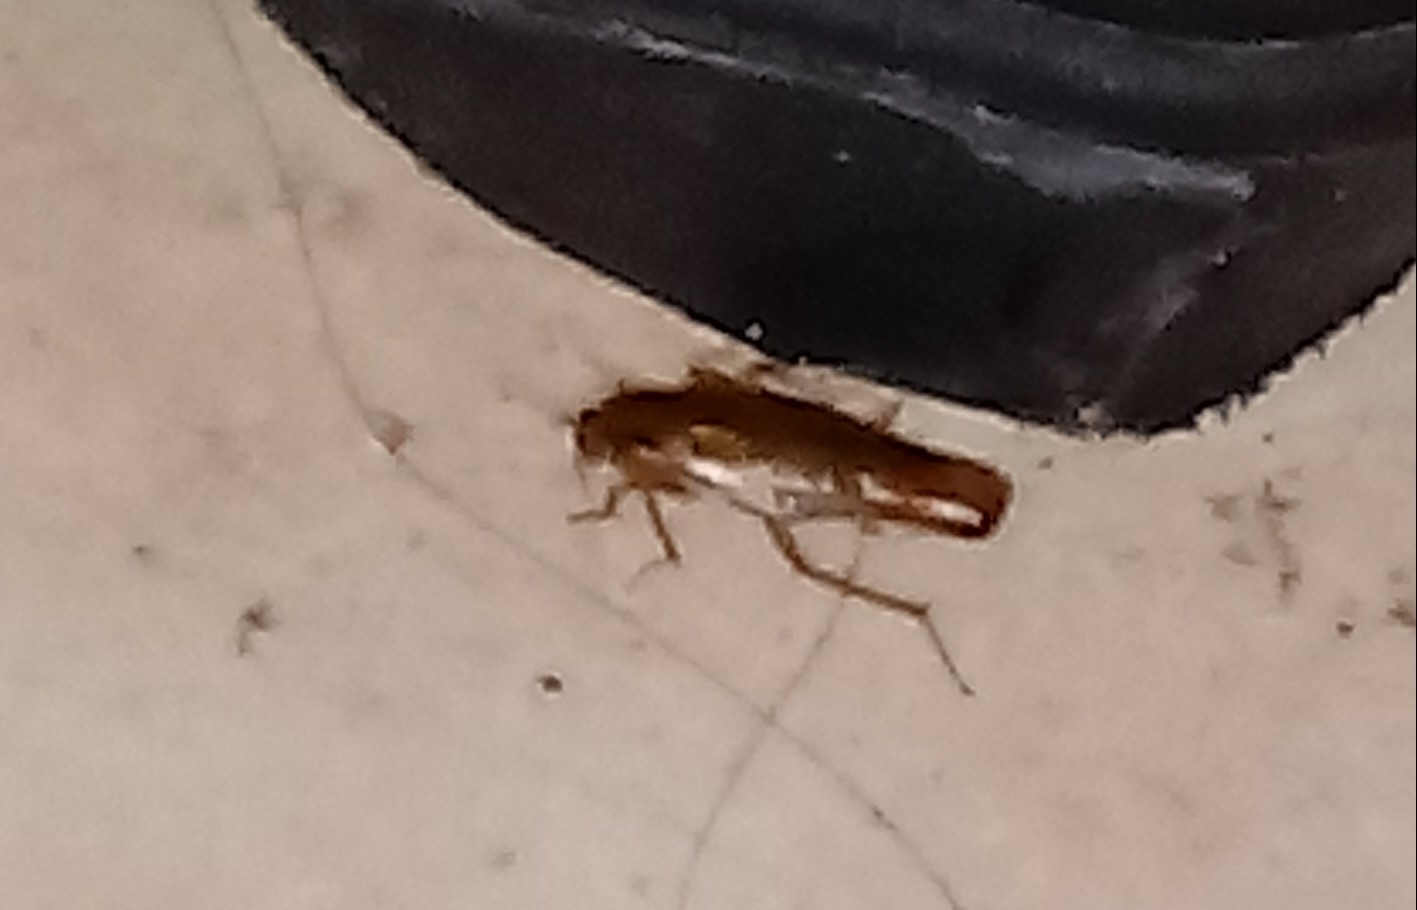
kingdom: Animalia
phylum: Arthropoda
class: Insecta
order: Blattodea
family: Ectobiidae
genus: Blattella
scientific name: Blattella germanica
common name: German cockroach
